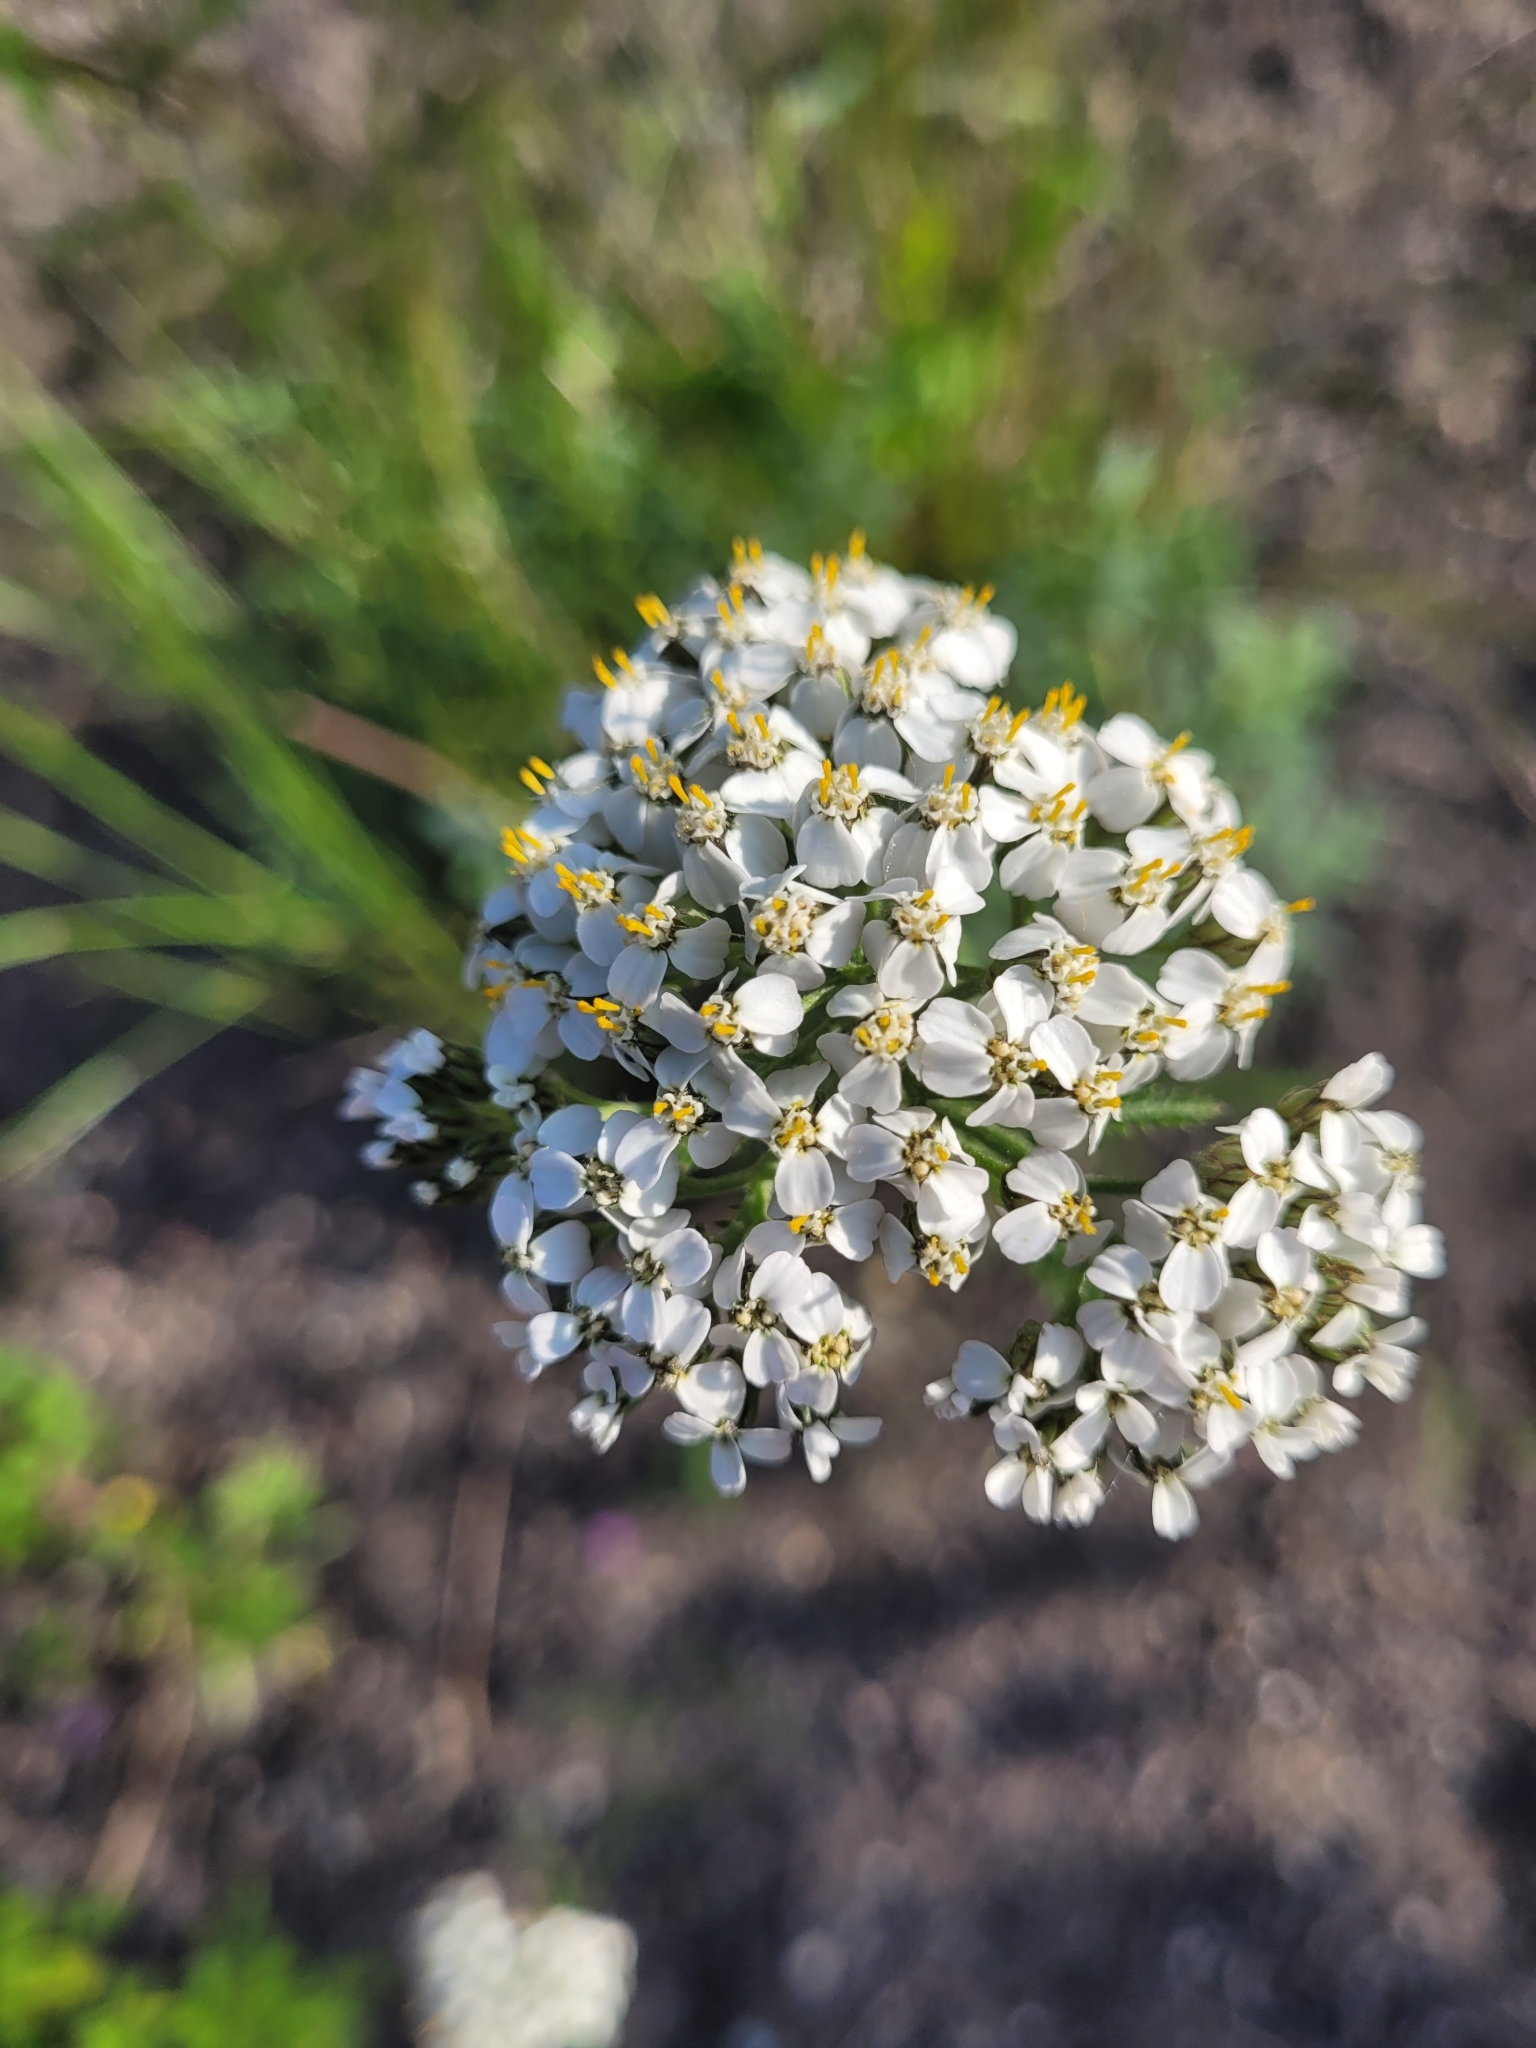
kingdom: Plantae
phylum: Tracheophyta
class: Magnoliopsida
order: Asterales
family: Asteraceae
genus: Achillea
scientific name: Achillea millefolium
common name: Yarrow
